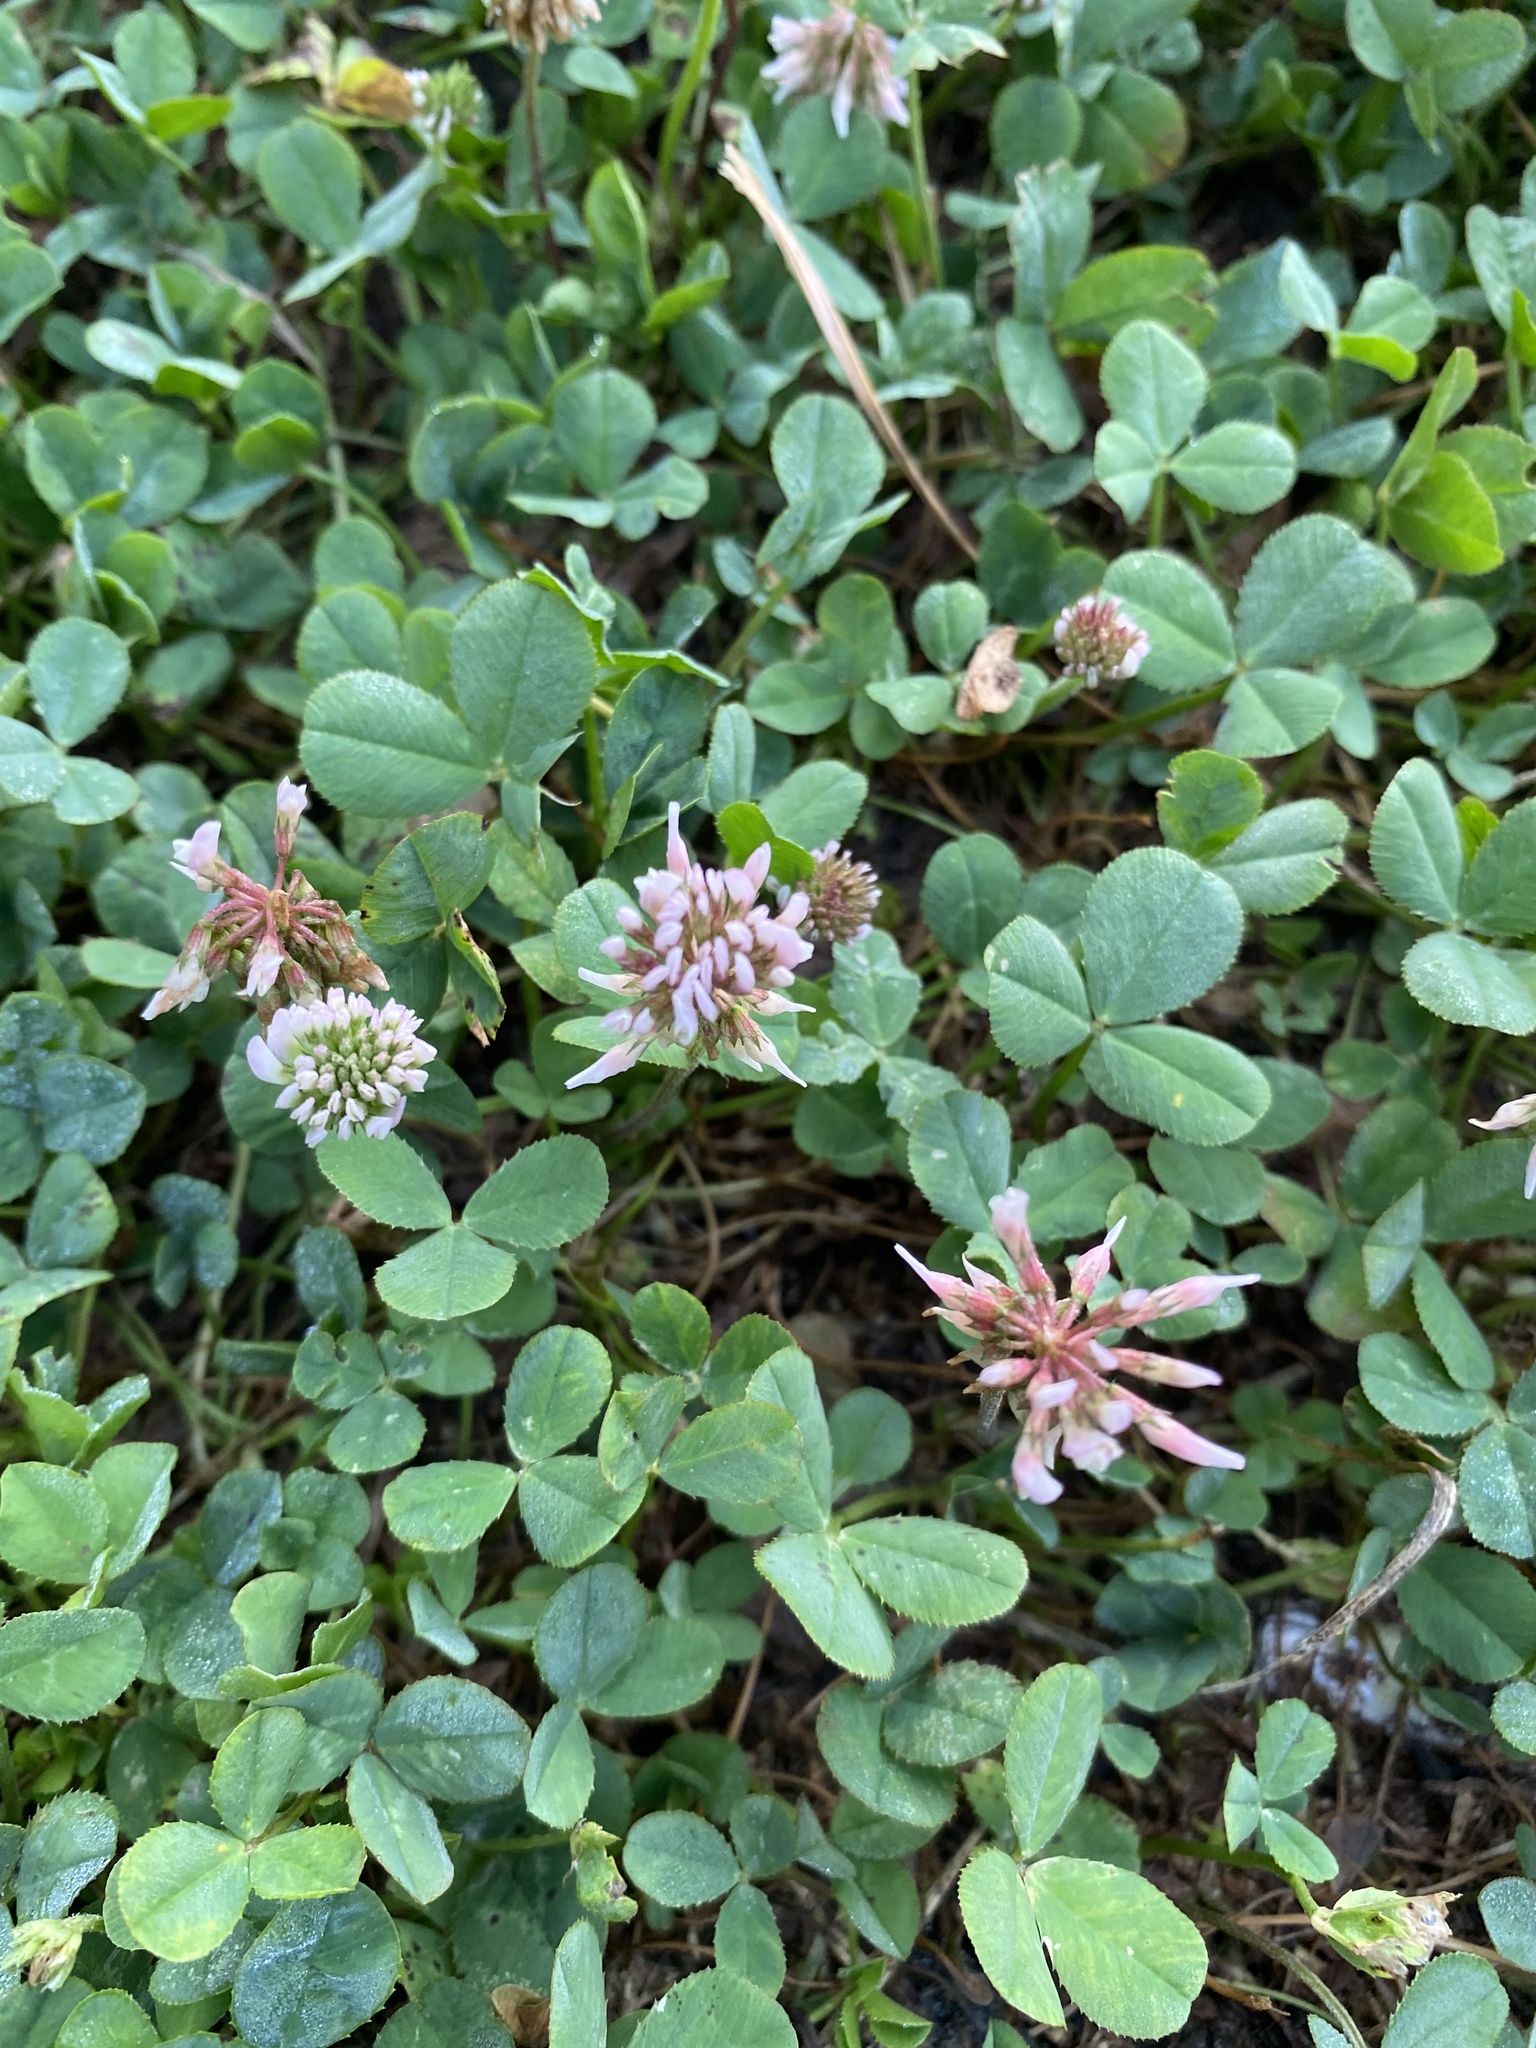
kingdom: Plantae
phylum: Tracheophyta
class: Magnoliopsida
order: Fabales
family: Fabaceae
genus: Trifolium
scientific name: Trifolium repens
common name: White clover
